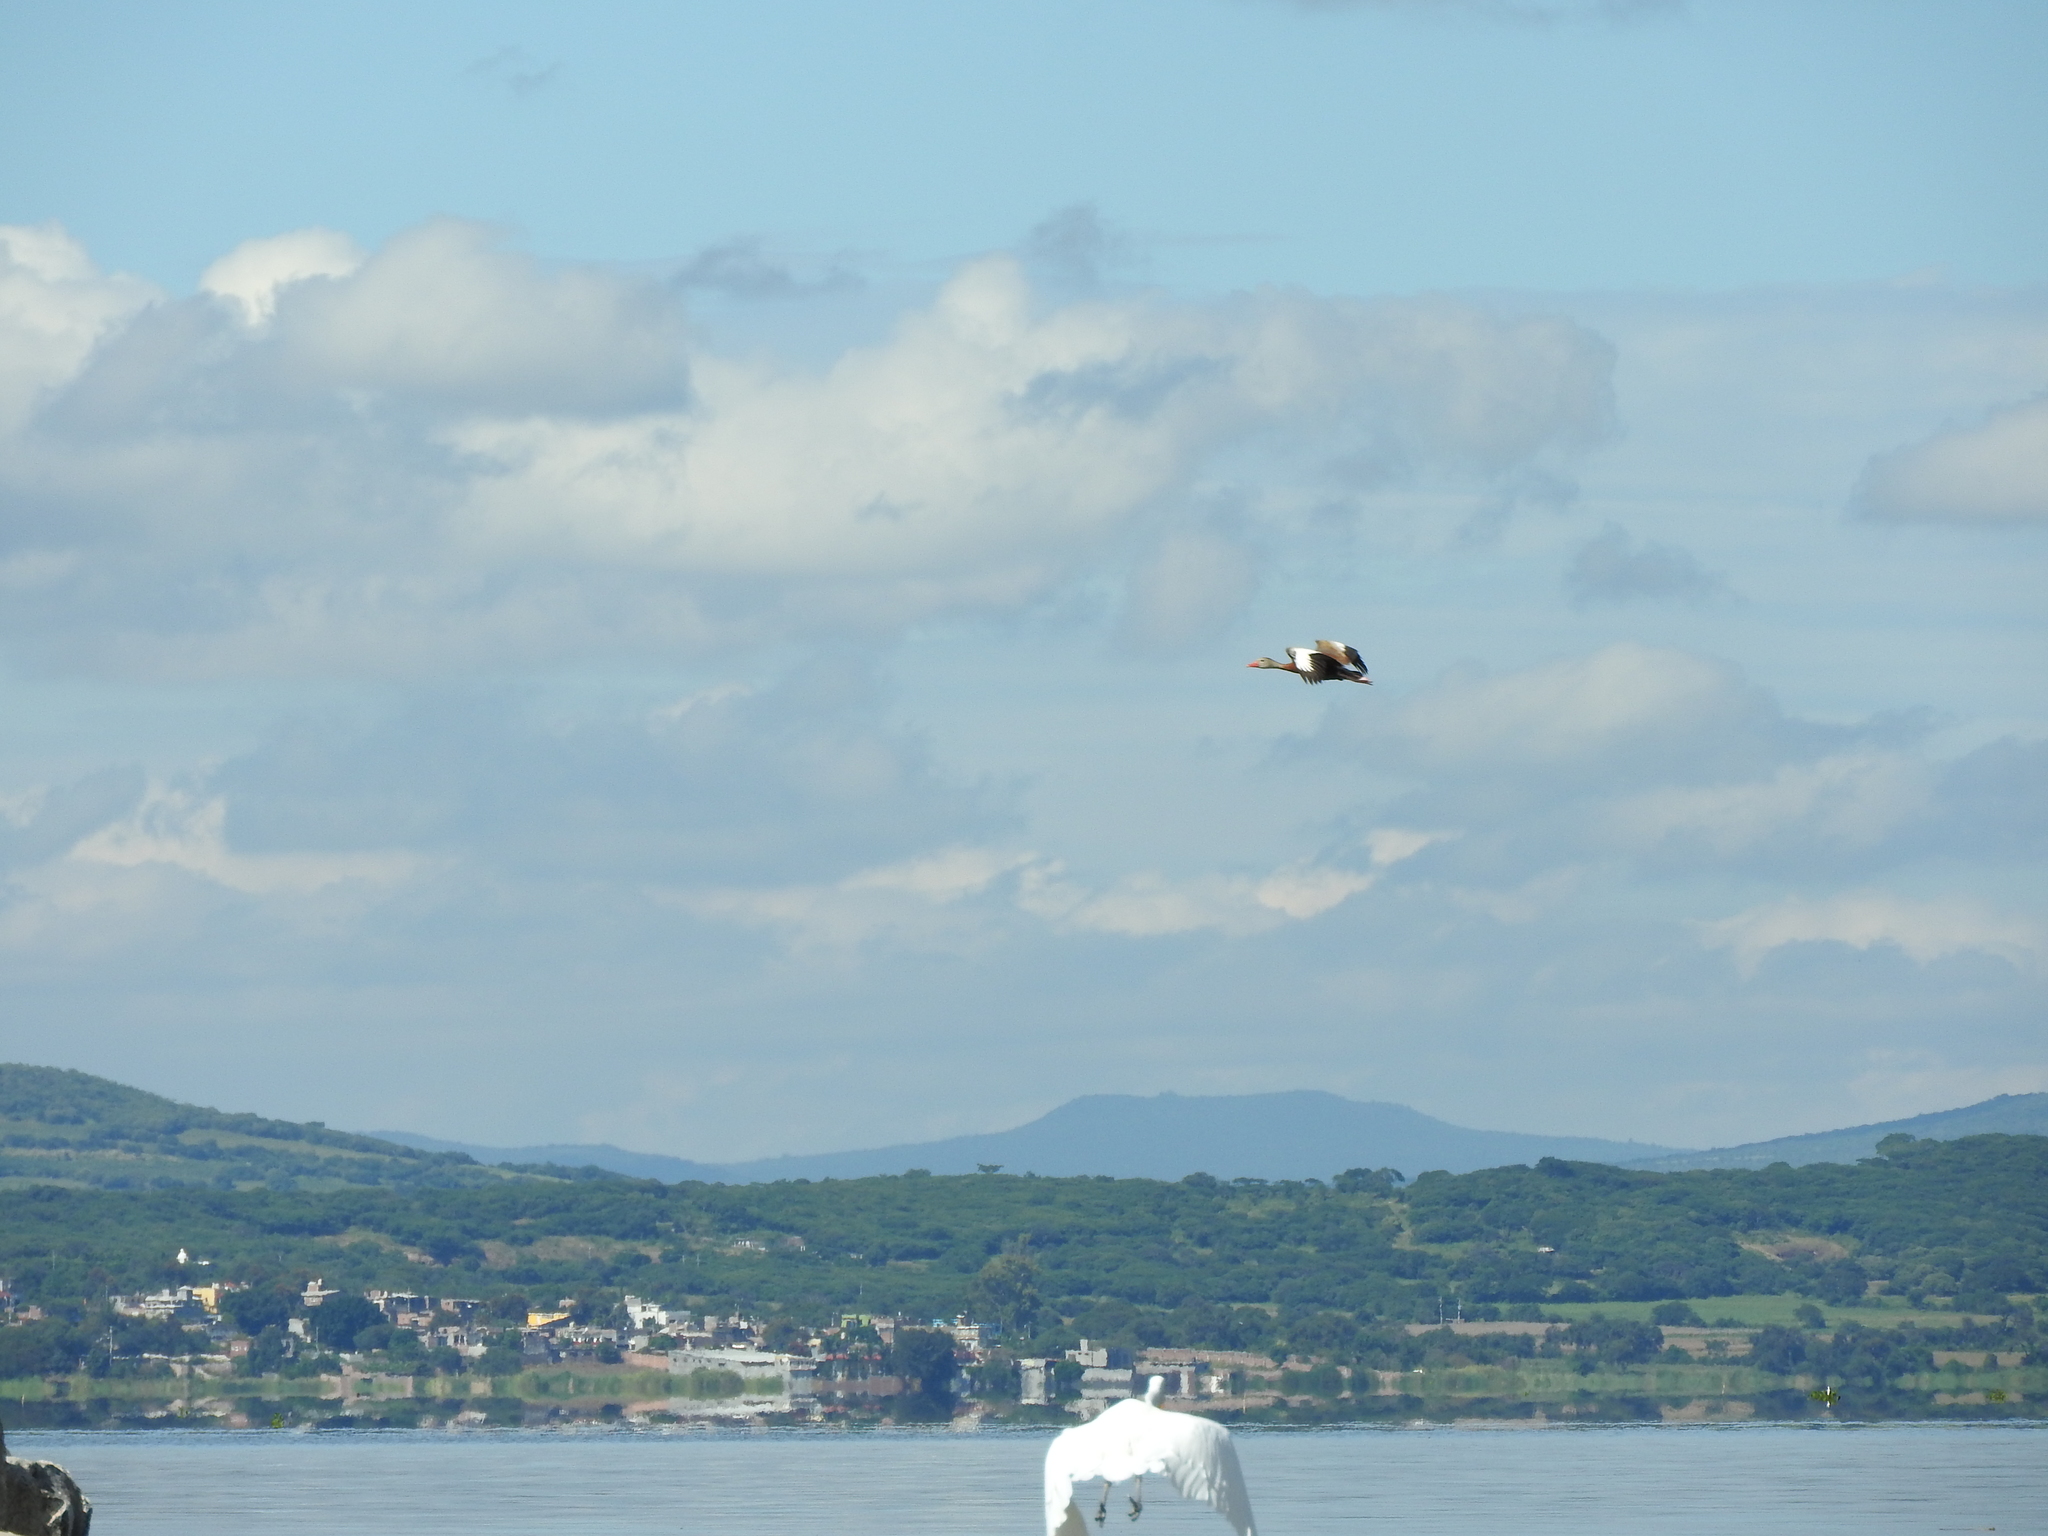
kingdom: Animalia
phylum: Chordata
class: Aves
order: Anseriformes
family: Anatidae
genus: Dendrocygna
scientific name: Dendrocygna autumnalis
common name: Black-bellied whistling duck
